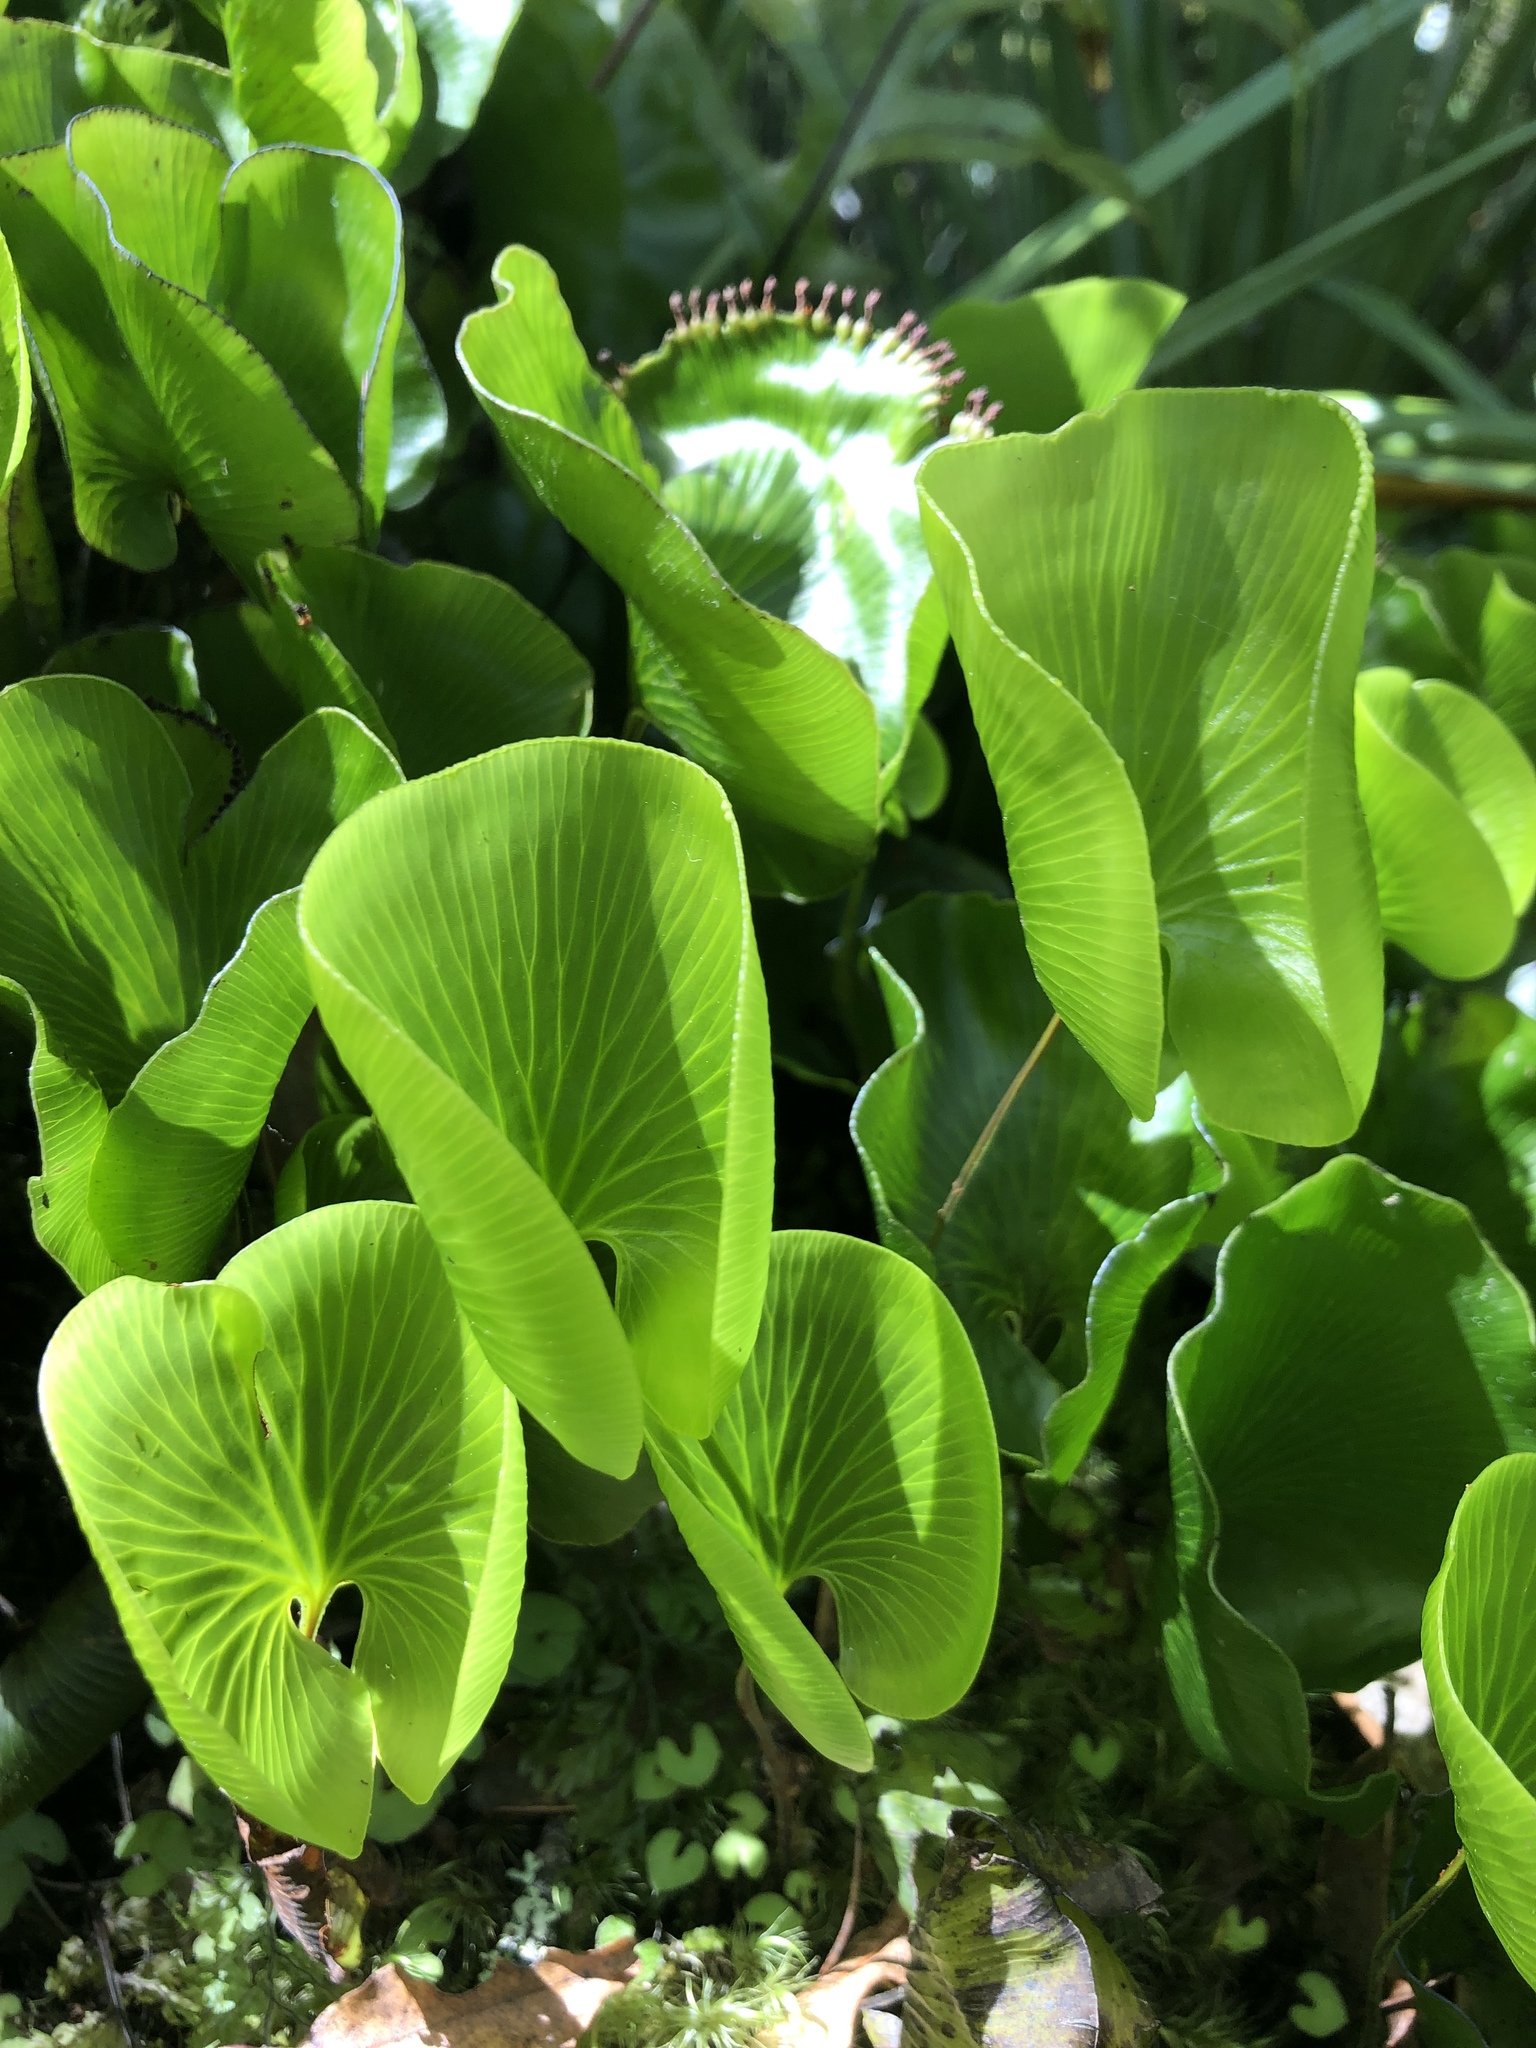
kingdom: Plantae
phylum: Tracheophyta
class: Polypodiopsida
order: Hymenophyllales
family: Hymenophyllaceae
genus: Hymenophyllum
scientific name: Hymenophyllum nephrophyllum
